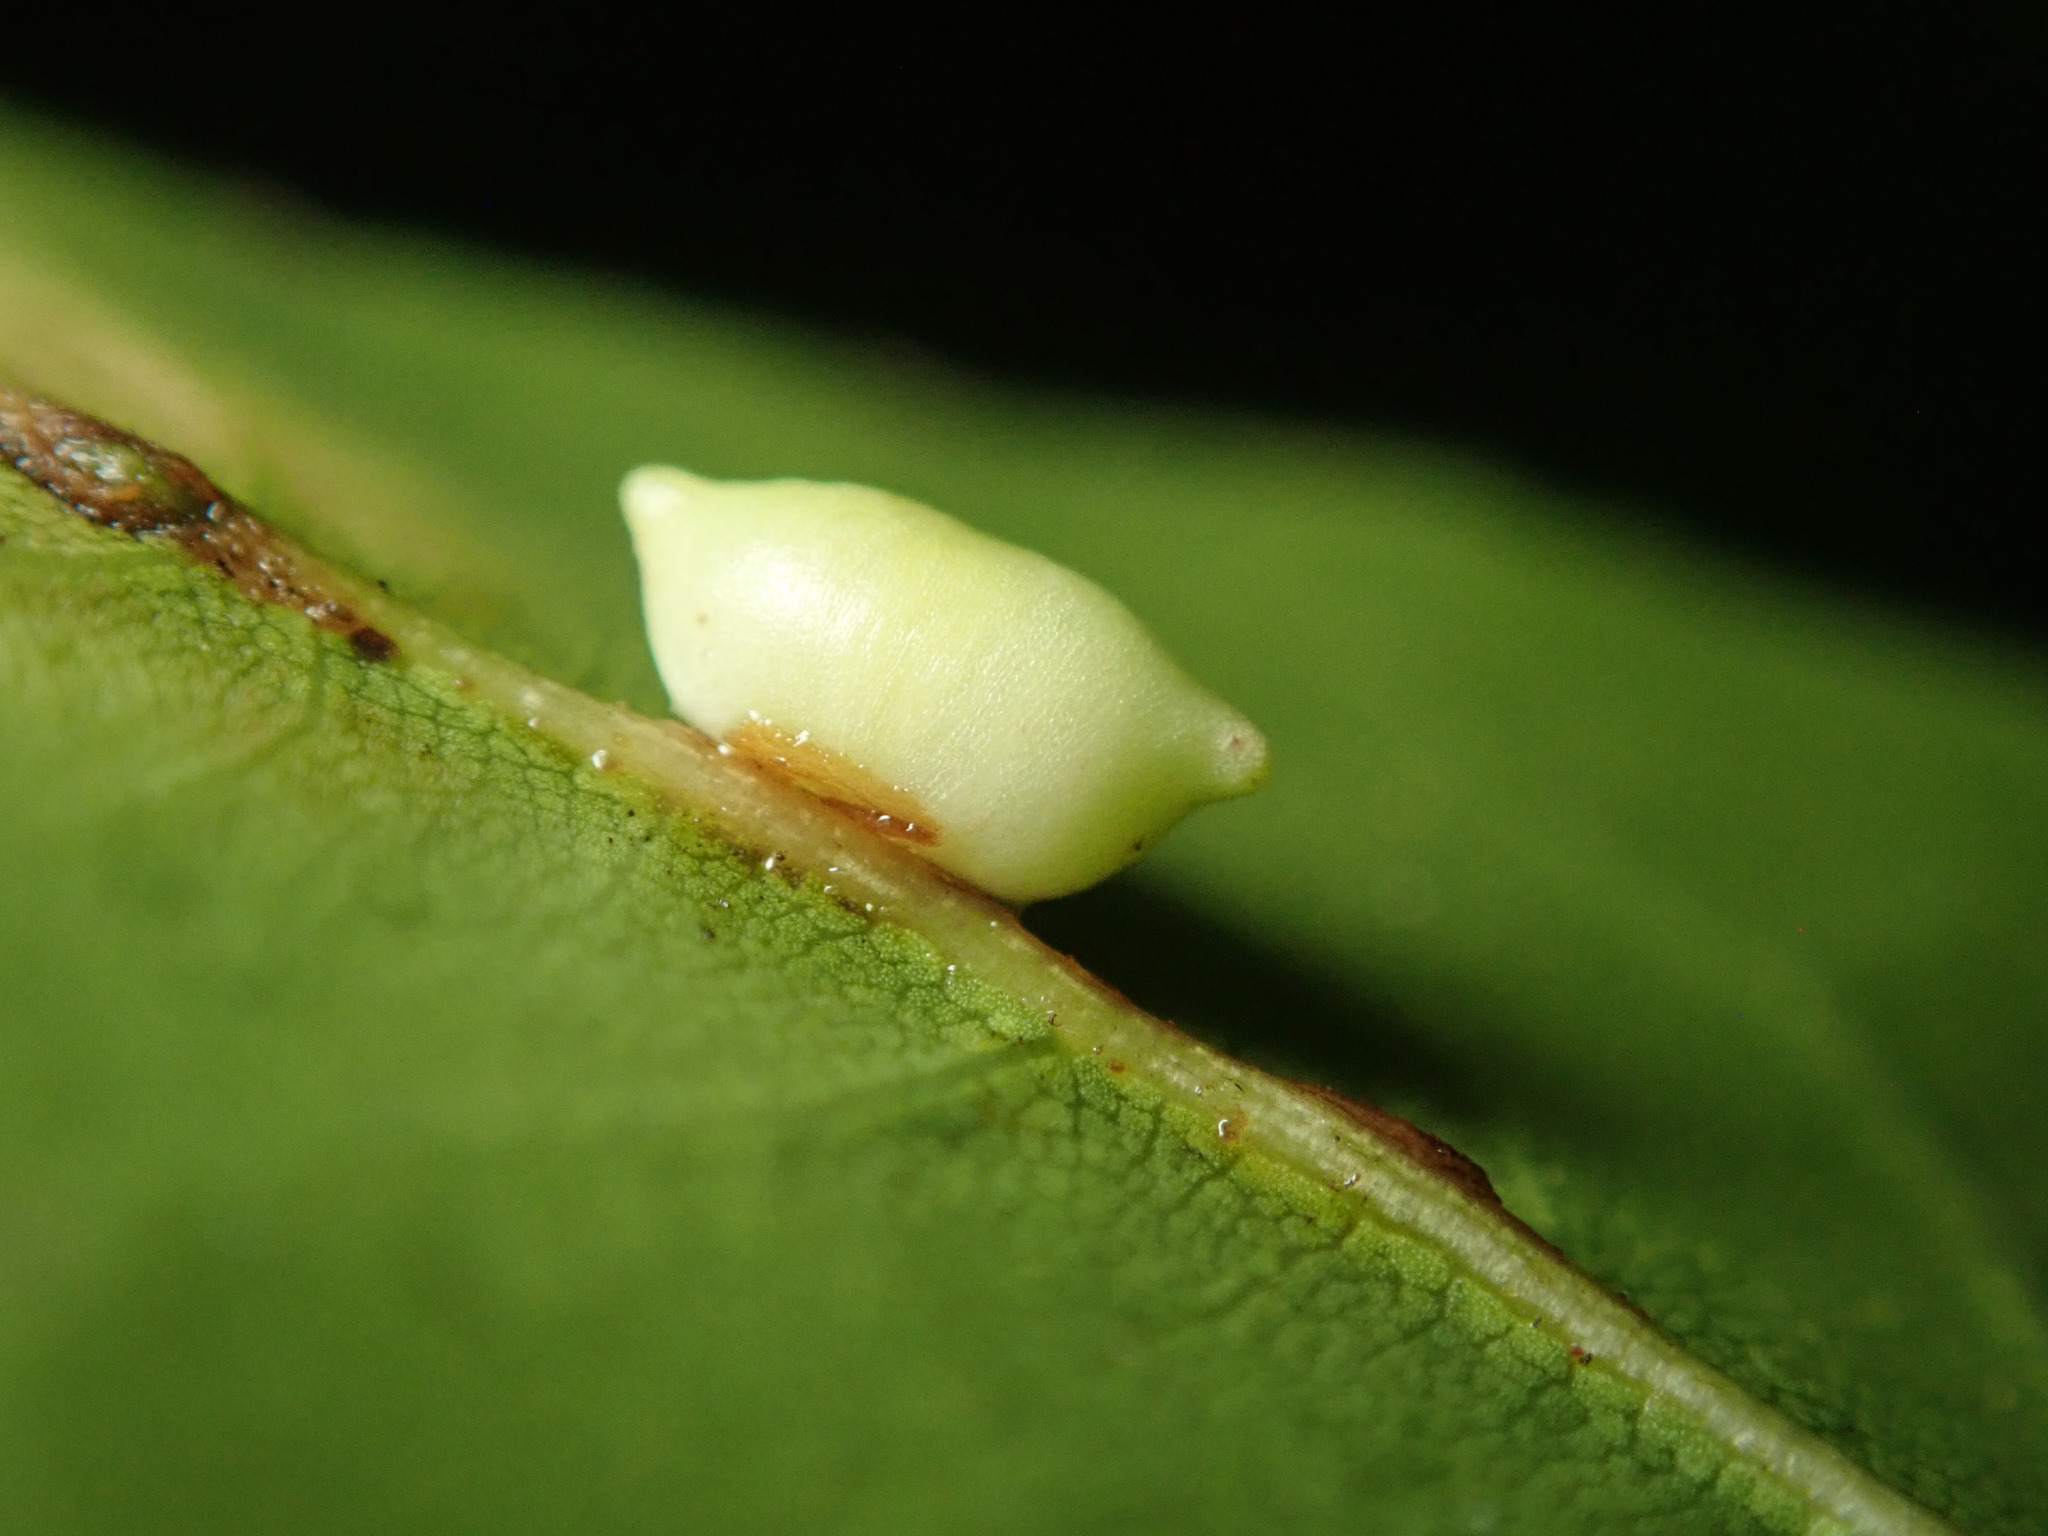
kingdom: Animalia
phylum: Arthropoda
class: Insecta
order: Hymenoptera
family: Cynipidae
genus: Dryocosmus
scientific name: Dryocosmus
